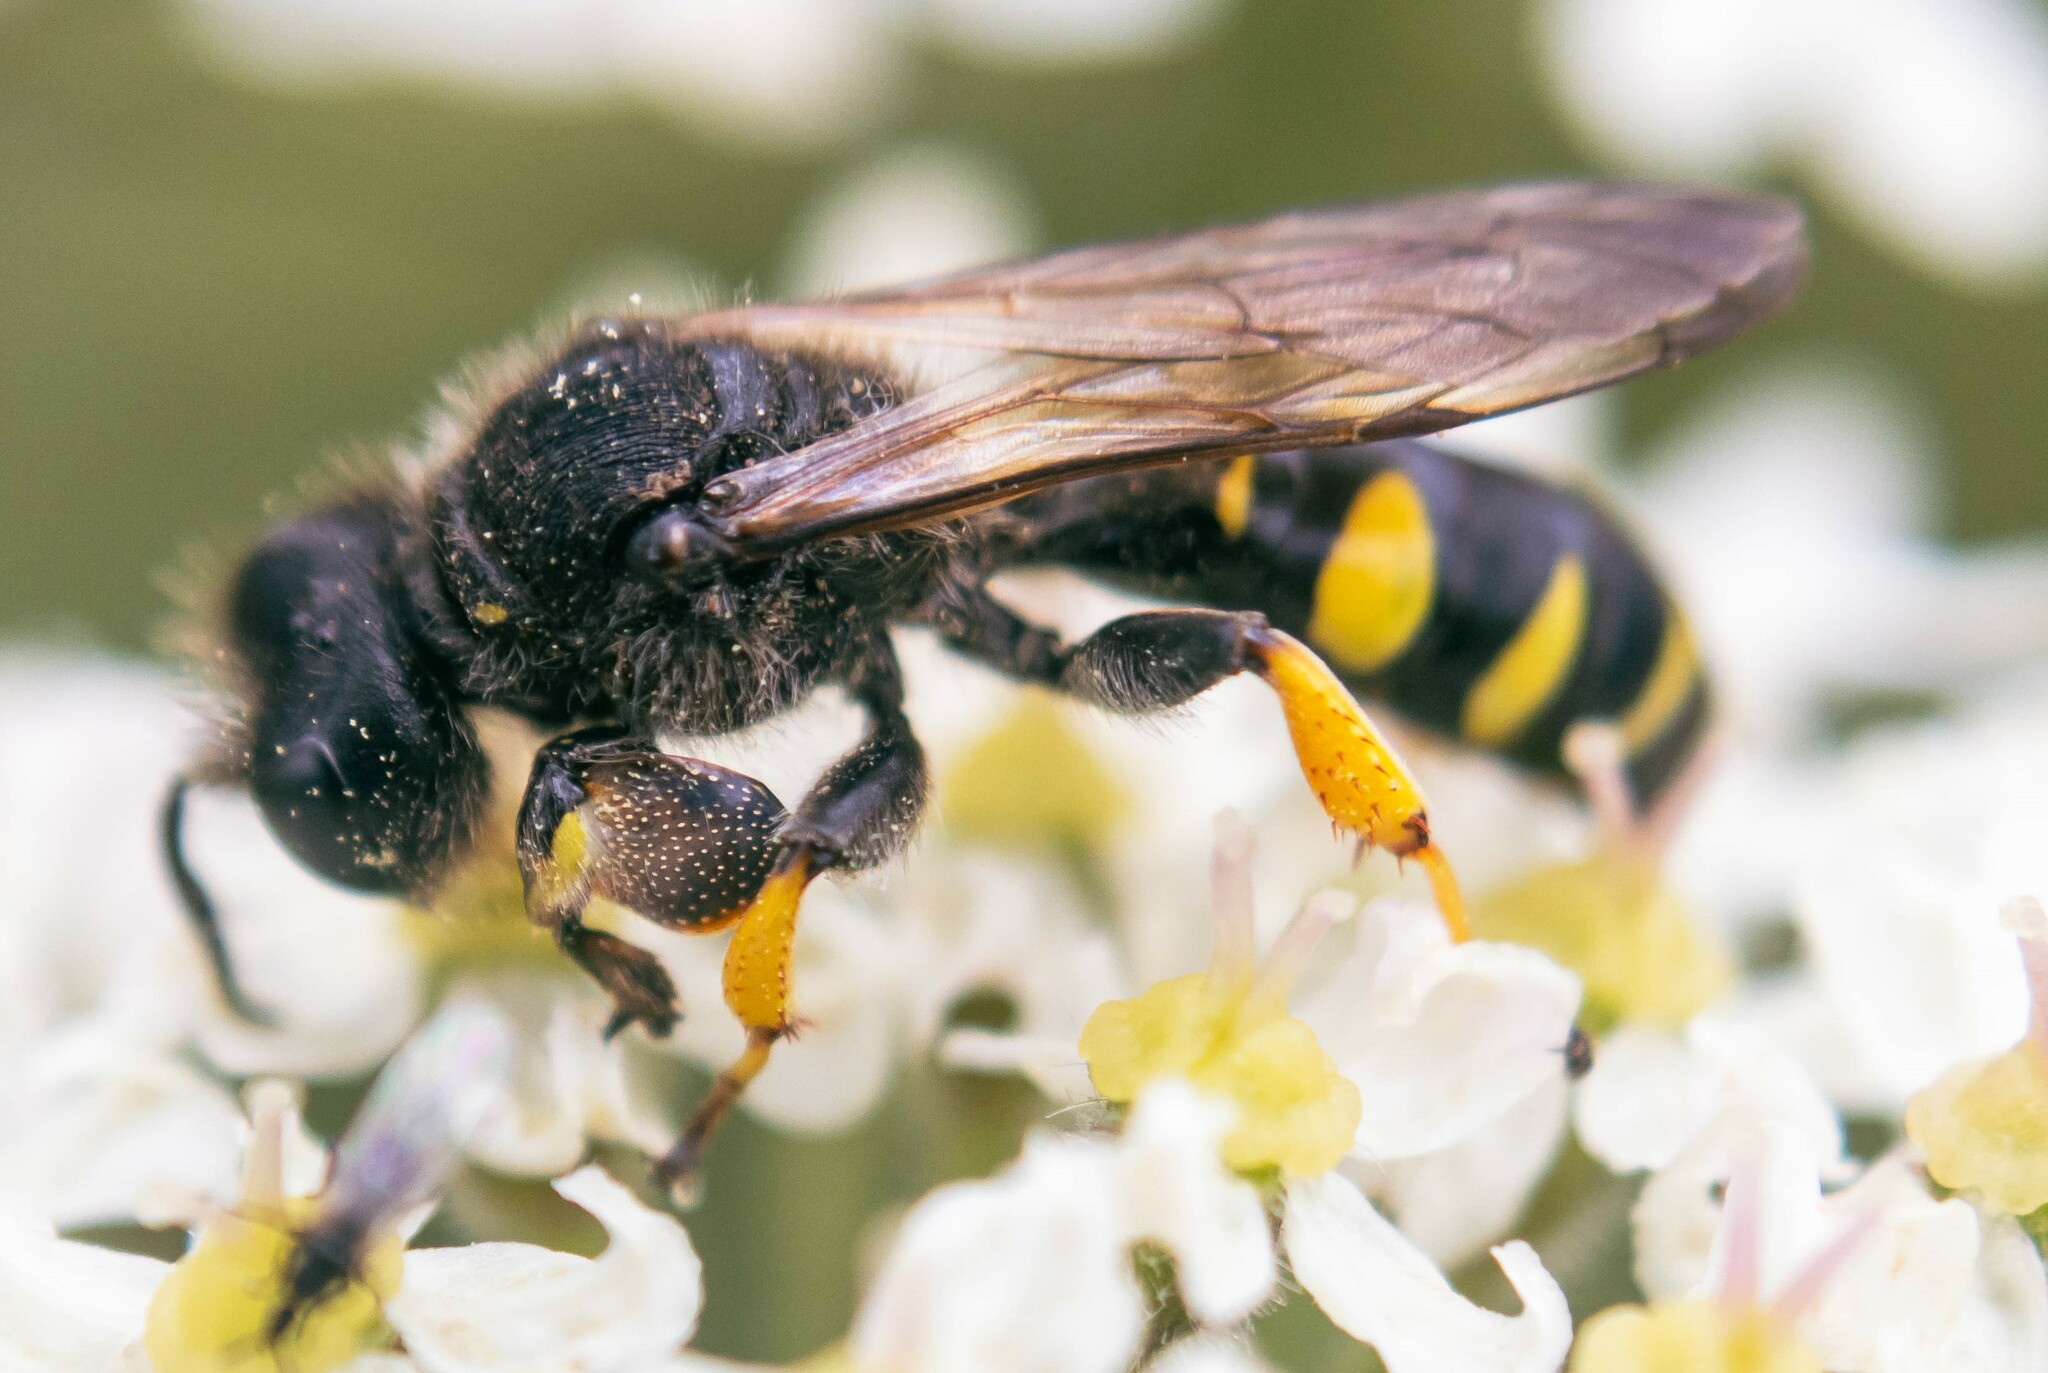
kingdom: Animalia
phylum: Arthropoda
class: Insecta
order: Hymenoptera
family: Crabronidae
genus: Crabro
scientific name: Crabro cribrarius
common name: Slender bodied digger wasp
